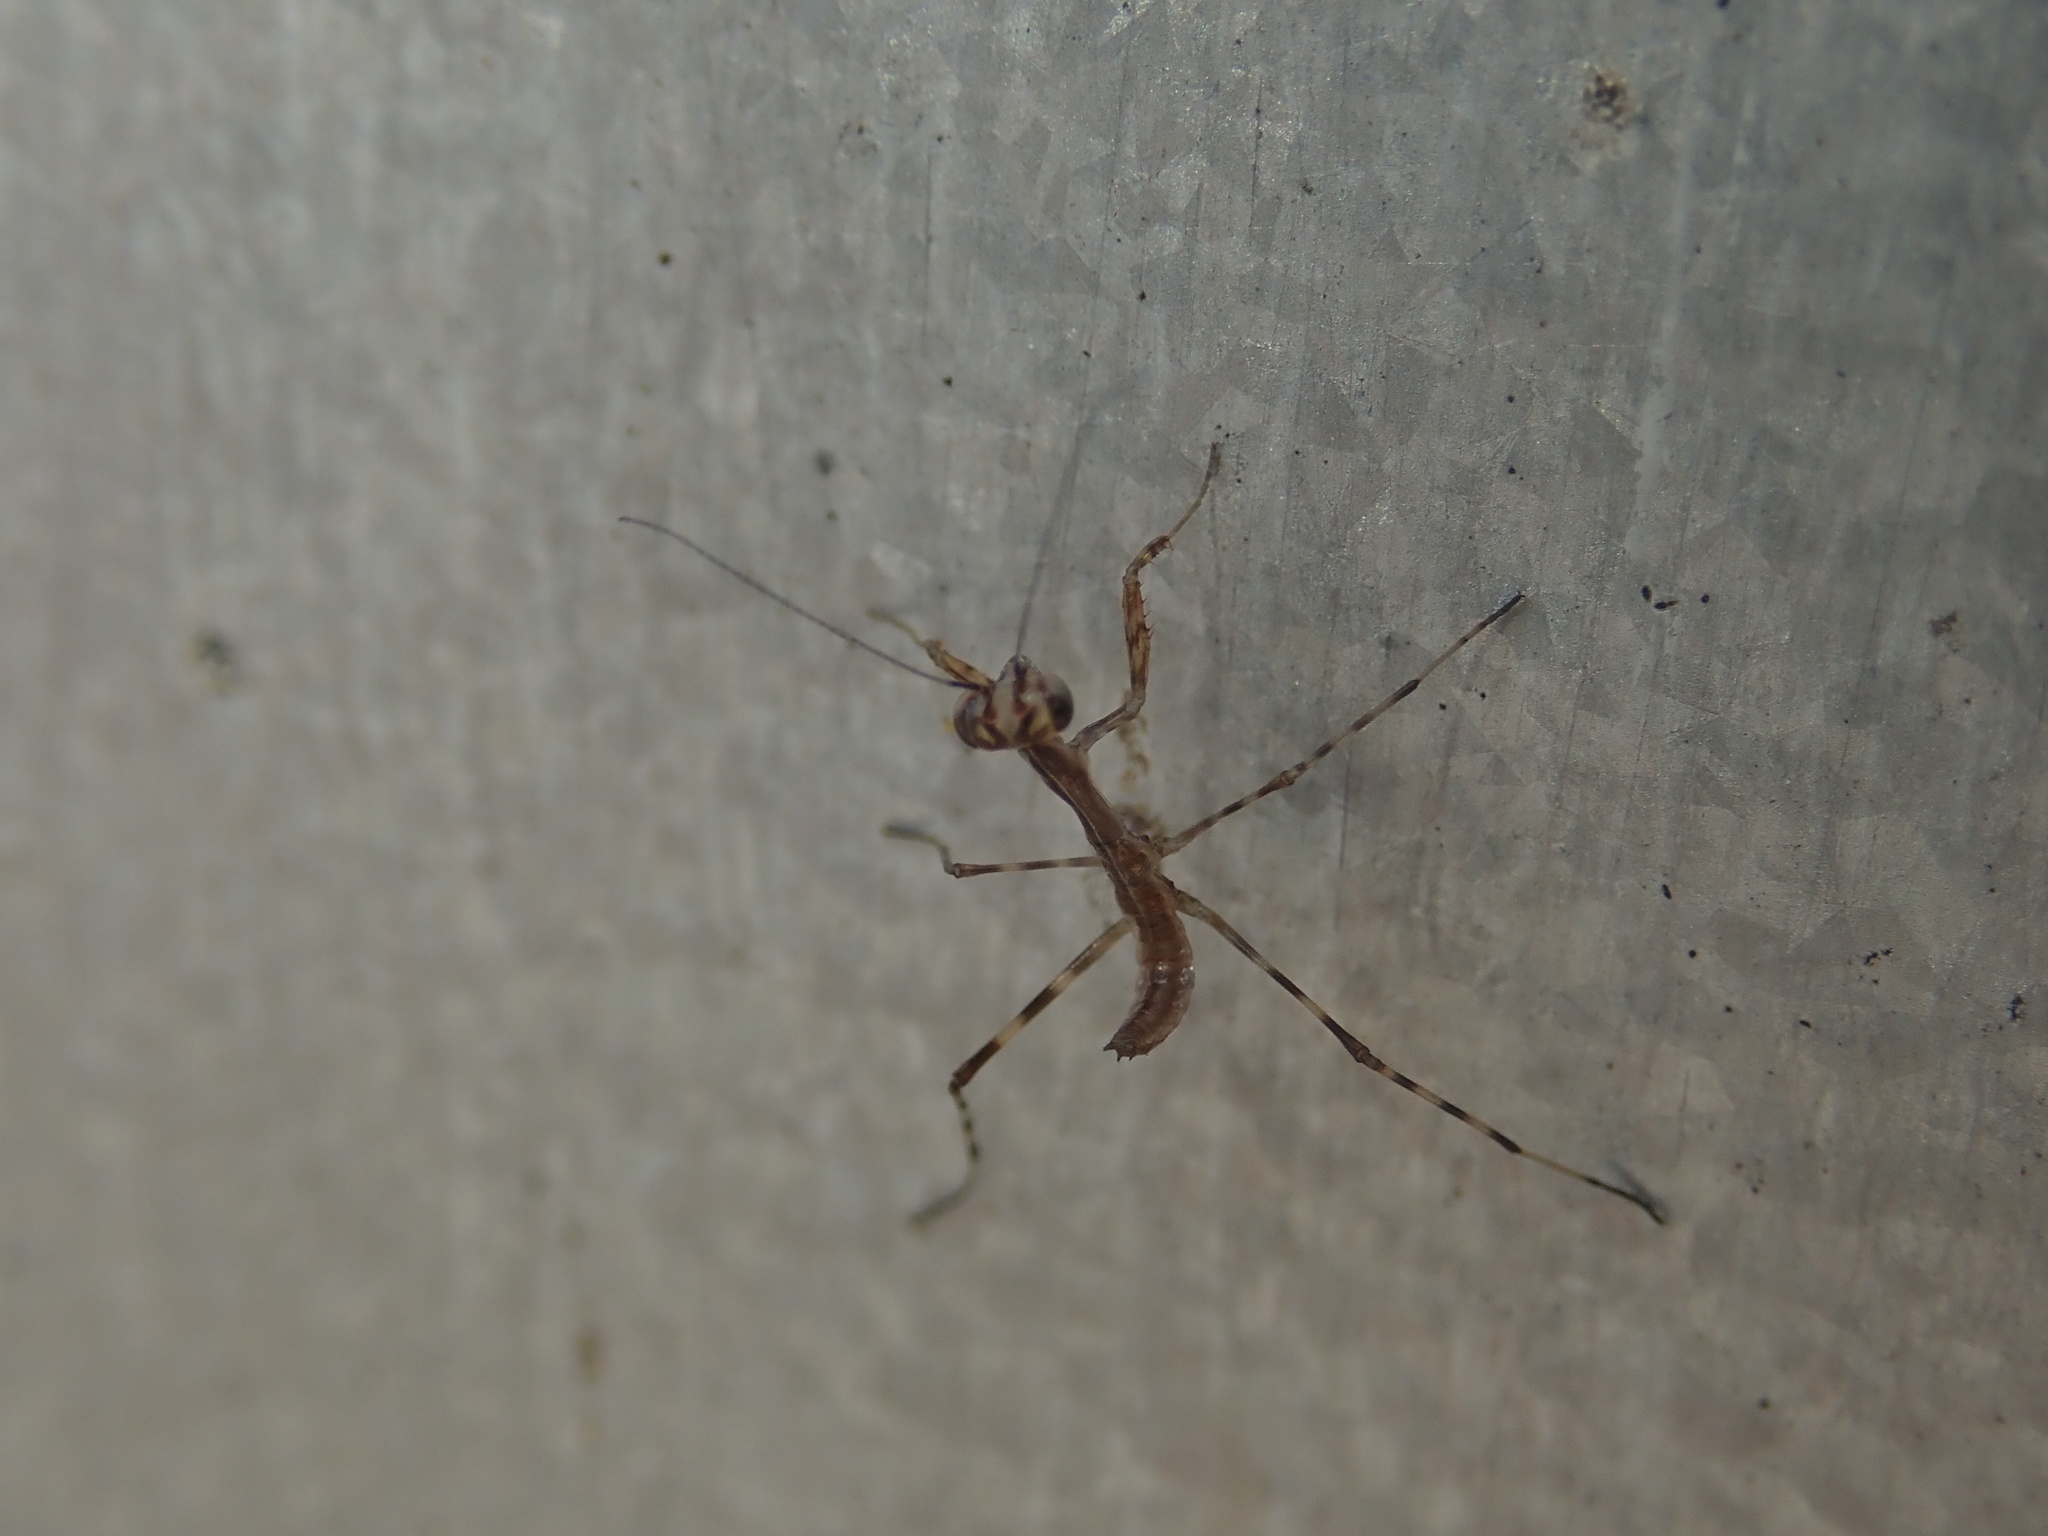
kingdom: Animalia
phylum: Arthropoda
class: Insecta
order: Mantodea
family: Miomantidae
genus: Miomantis
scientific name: Miomantis caffra
